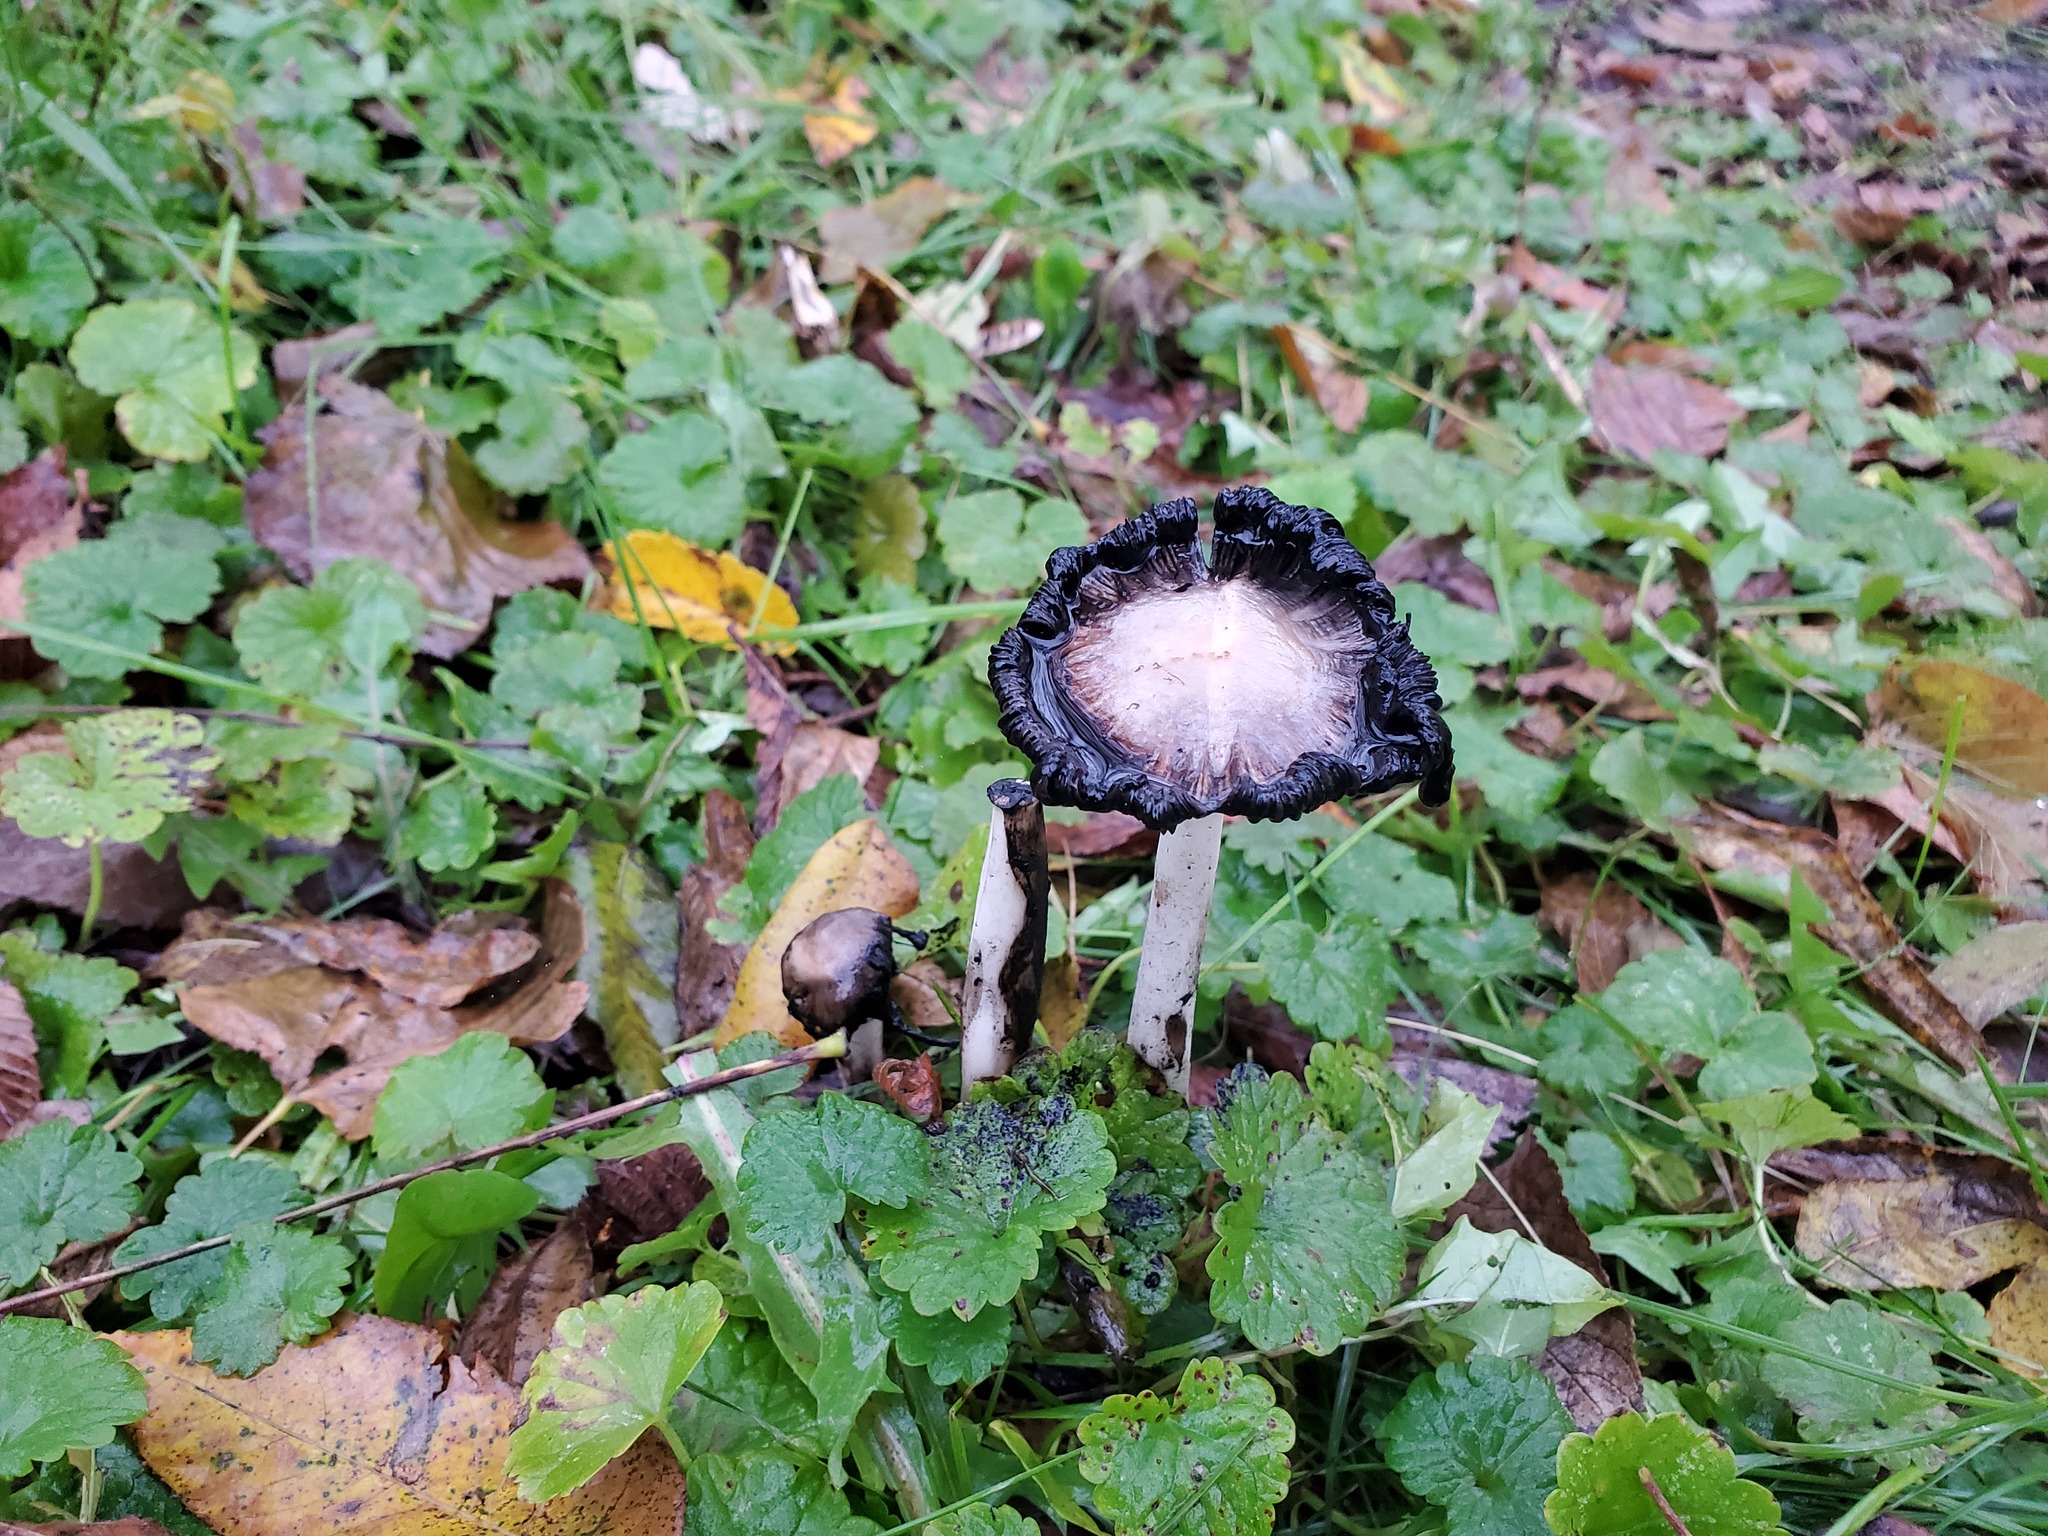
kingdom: Fungi
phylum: Basidiomycota
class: Agaricomycetes
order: Agaricales
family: Agaricaceae
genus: Coprinus
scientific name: Coprinus comatus
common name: Lawyer's wig
